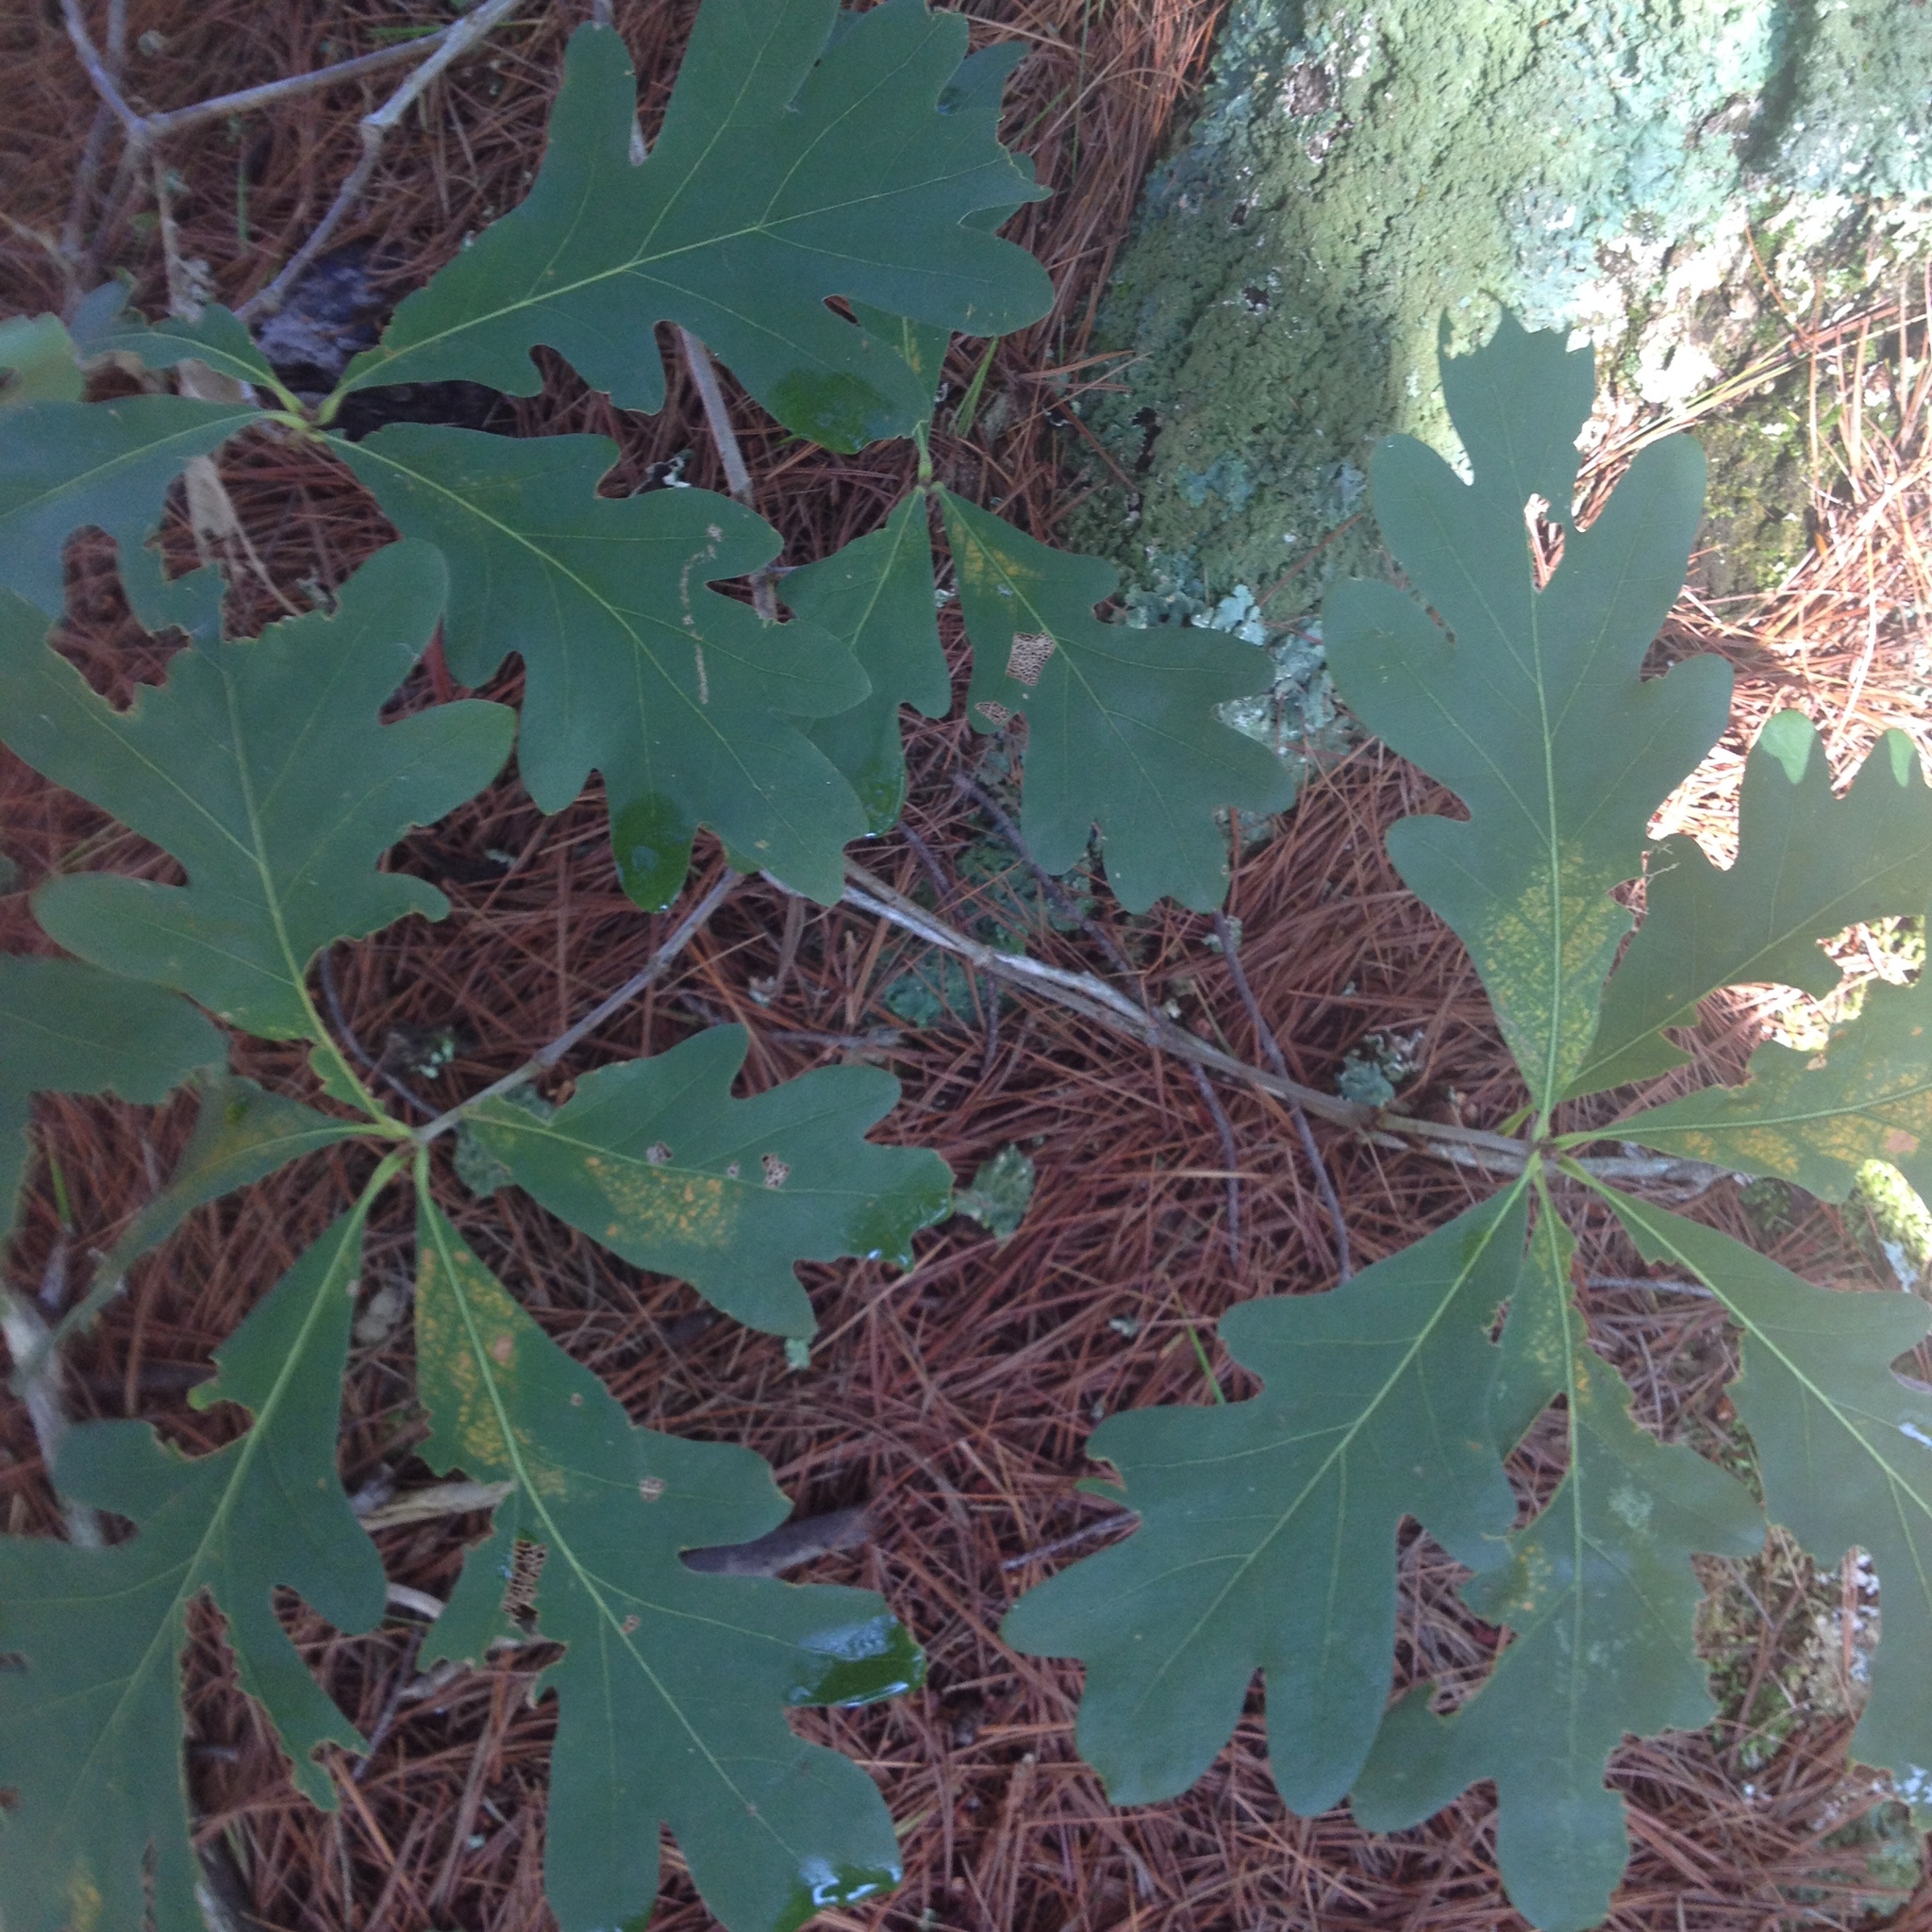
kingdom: Plantae
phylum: Tracheophyta
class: Magnoliopsida
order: Fagales
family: Fagaceae
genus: Quercus
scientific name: Quercus alba
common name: White oak
